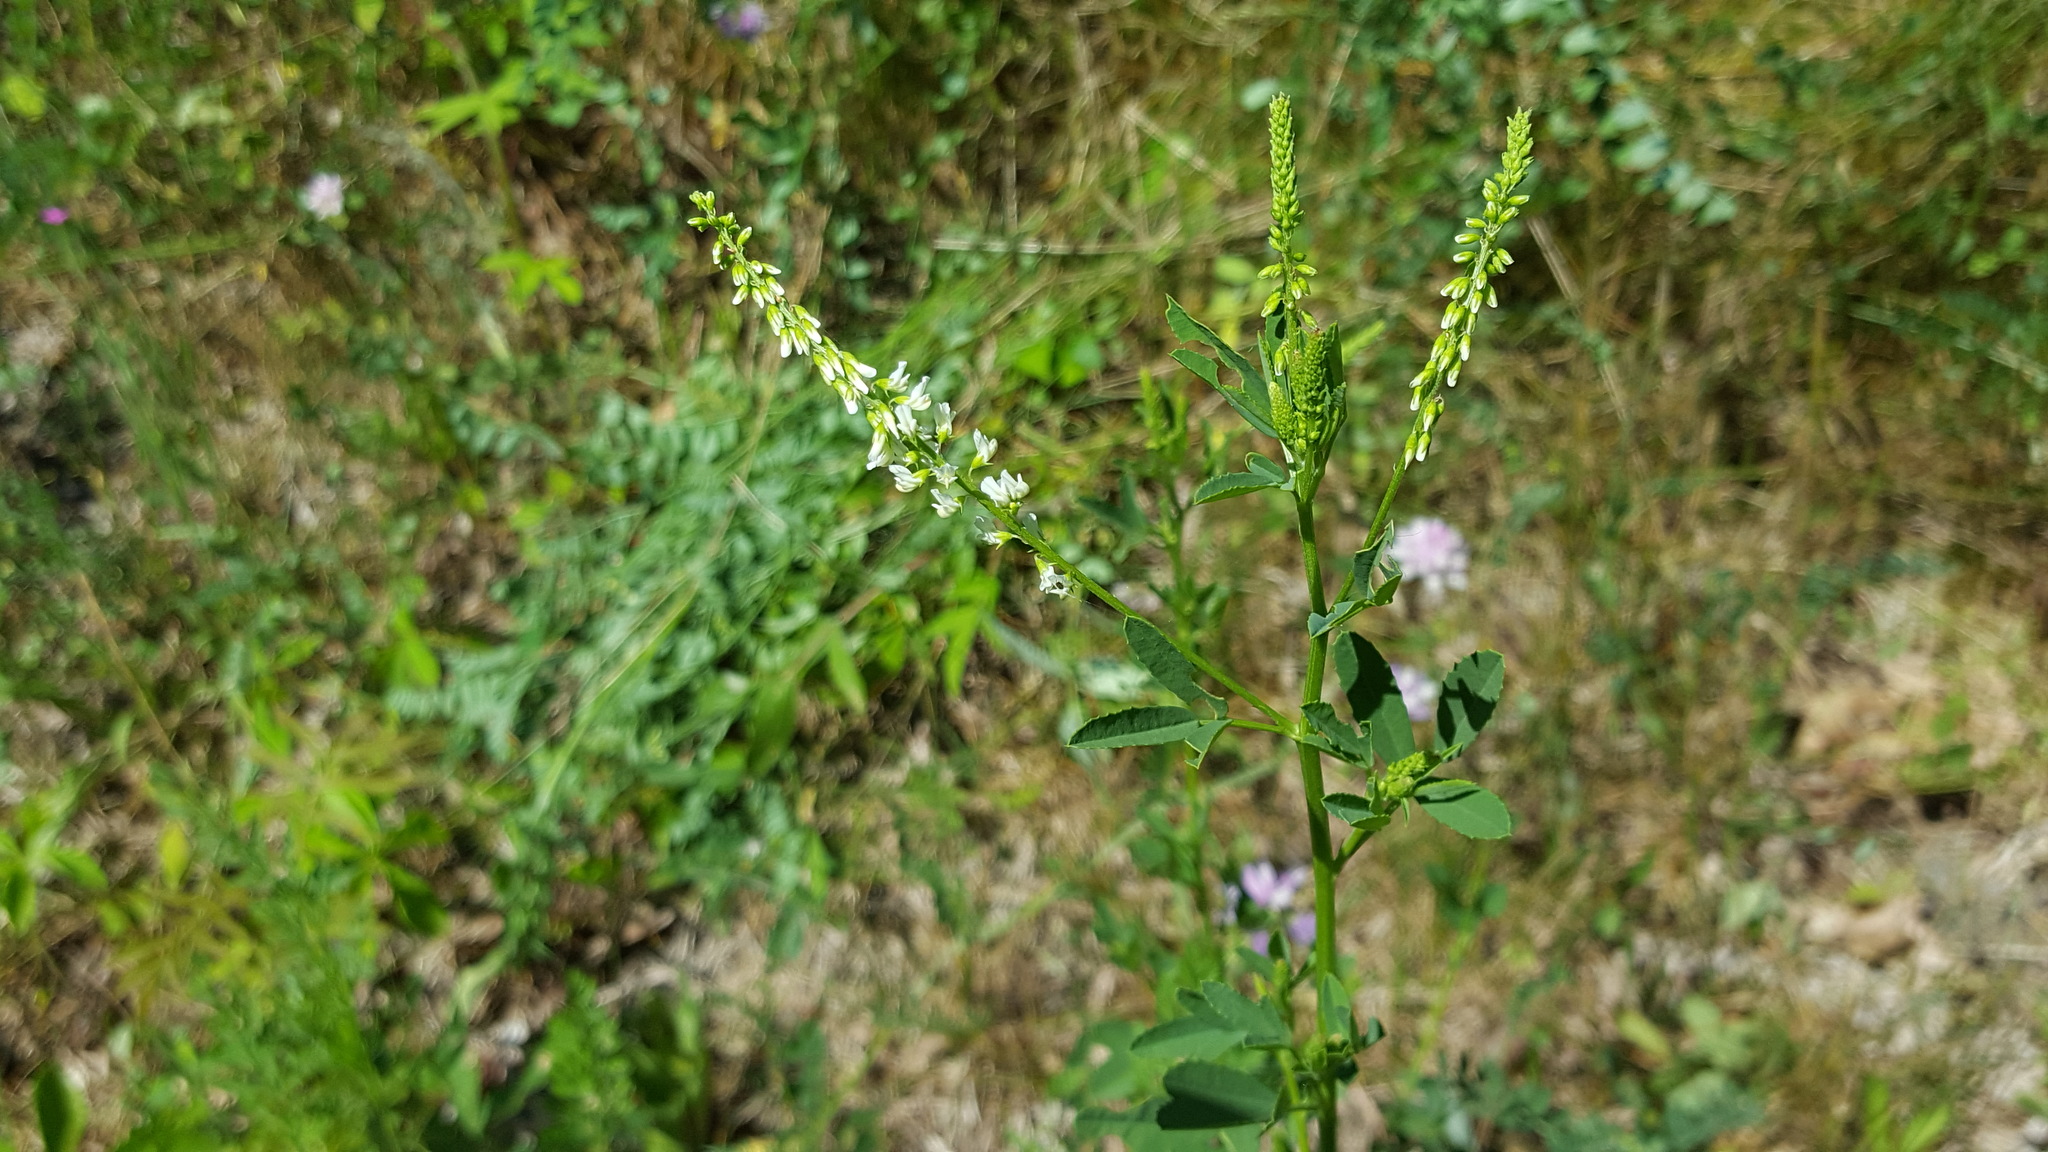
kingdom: Plantae
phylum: Tracheophyta
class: Magnoliopsida
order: Fabales
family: Fabaceae
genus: Melilotus
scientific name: Melilotus albus
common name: White melilot
